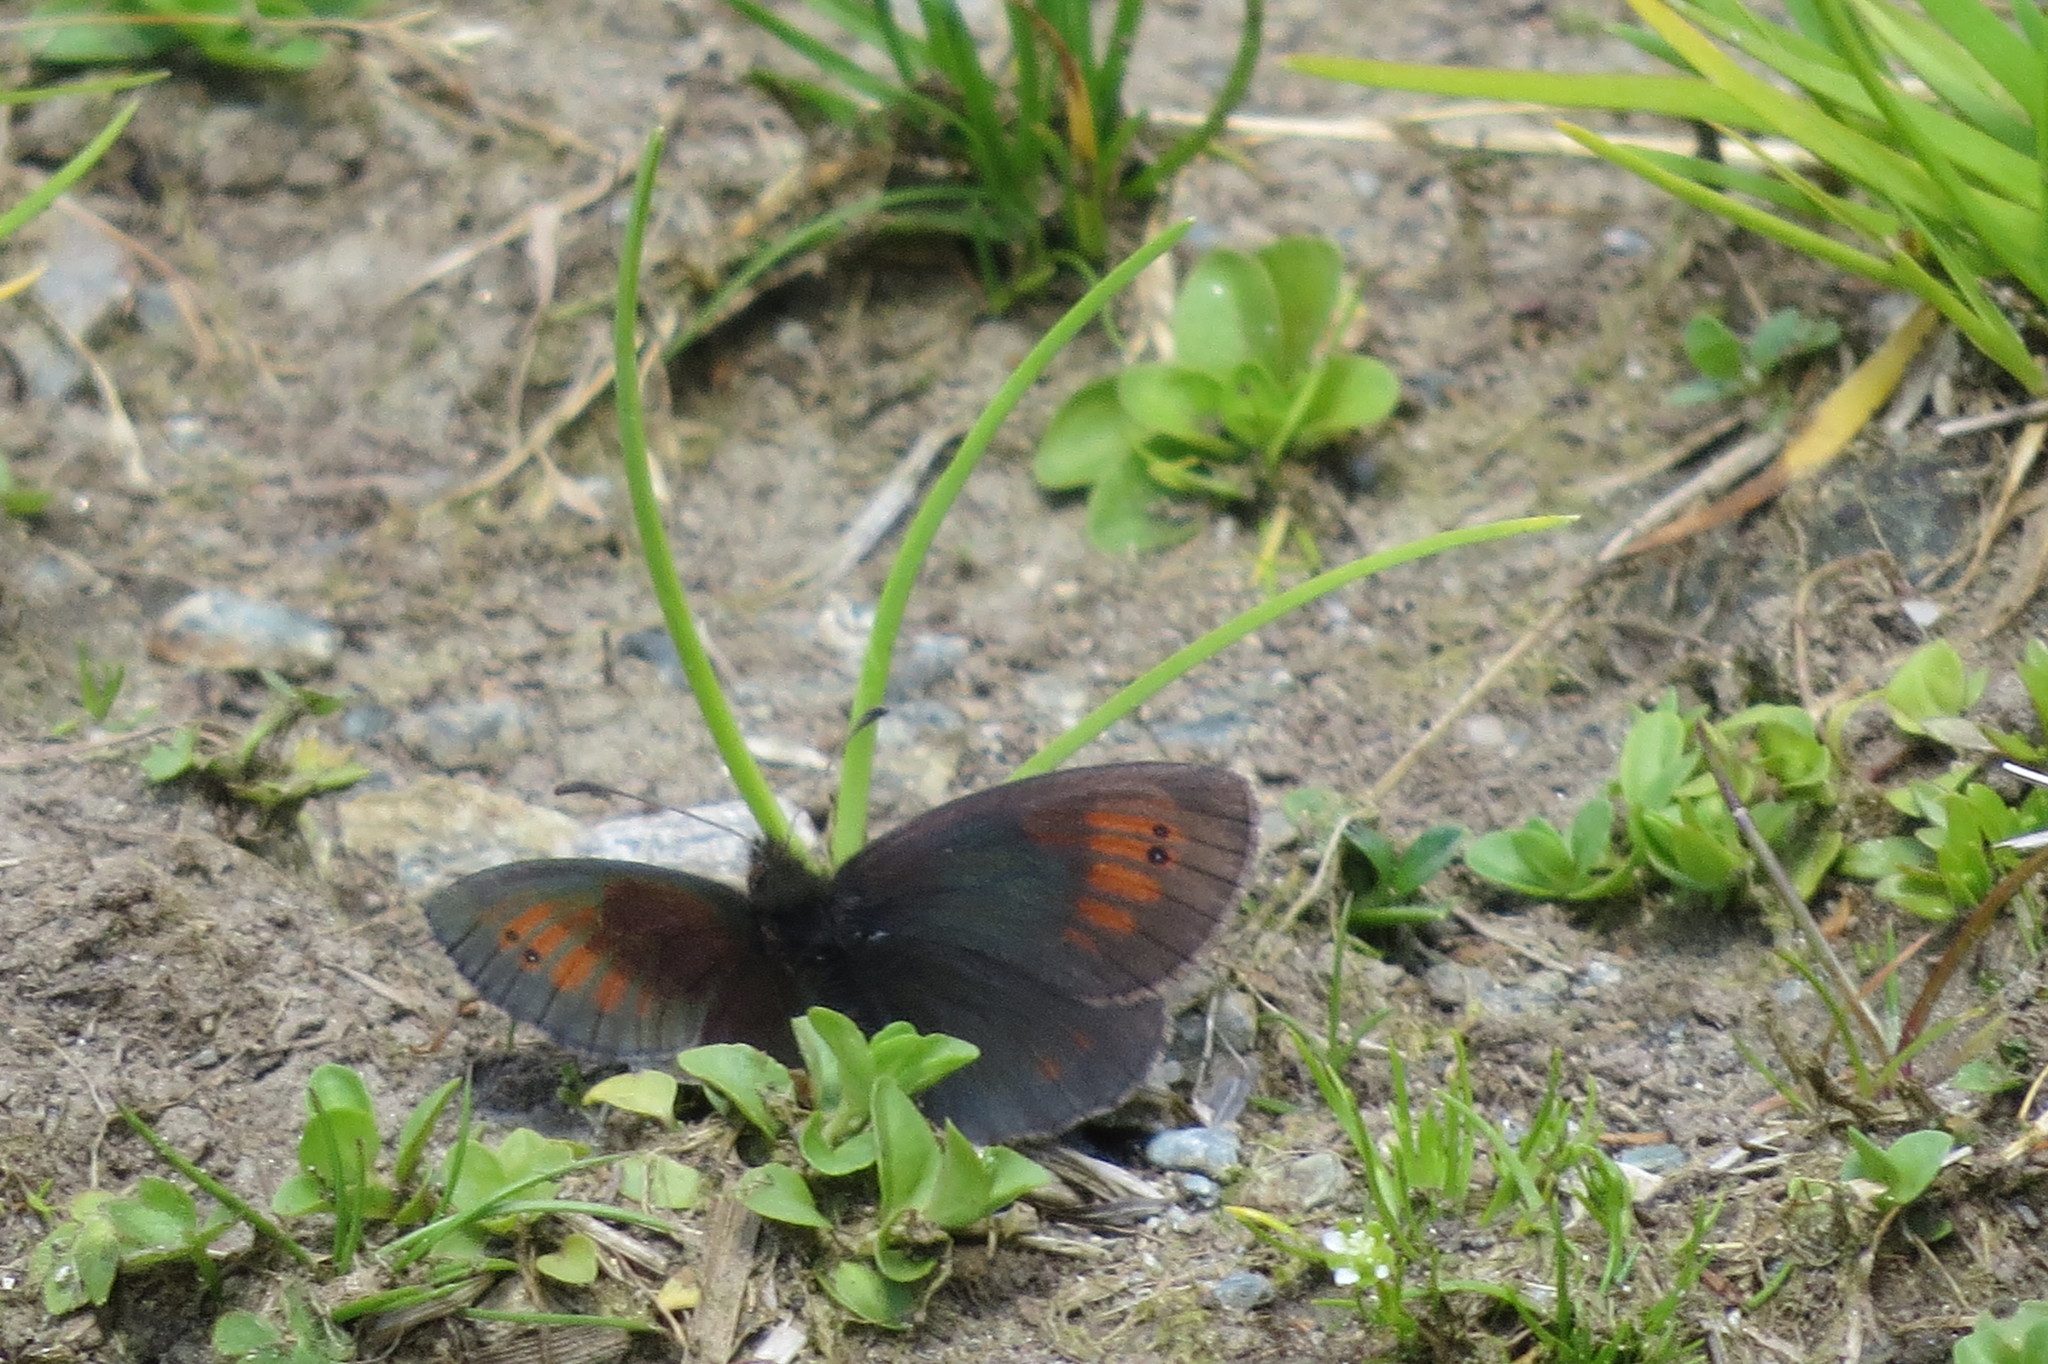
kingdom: Animalia
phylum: Arthropoda
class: Insecta
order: Lepidoptera
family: Nymphalidae
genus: Erebia
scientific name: Erebia tyndarus
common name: Swiss brassy ringlet
